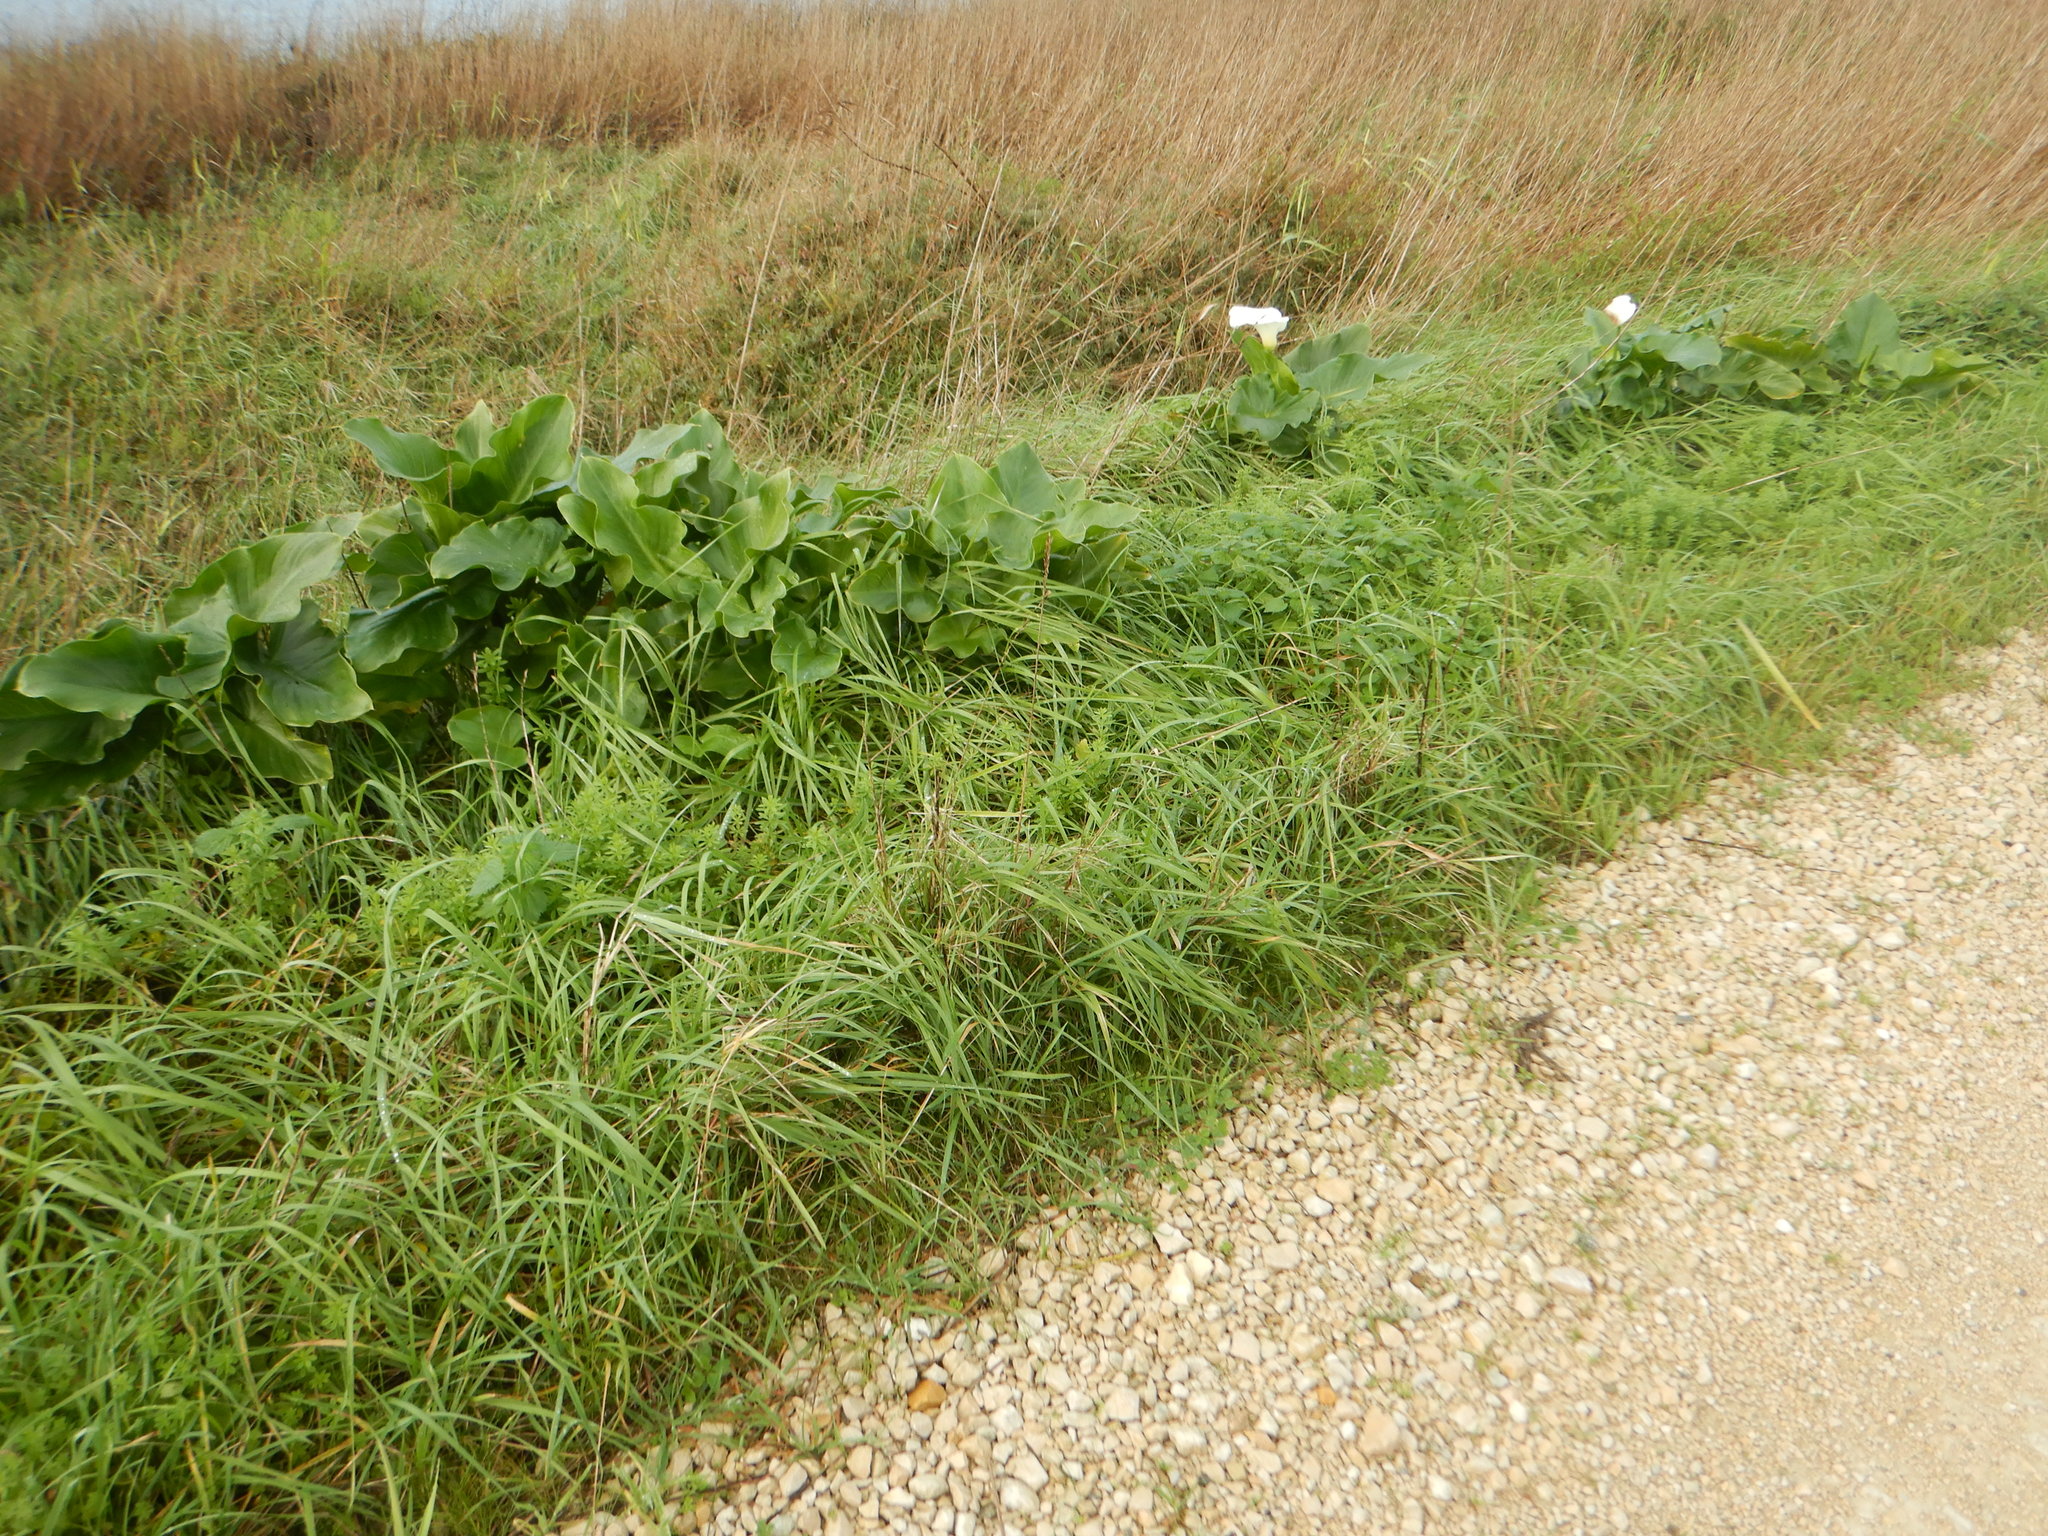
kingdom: Plantae
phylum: Tracheophyta
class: Liliopsida
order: Alismatales
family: Araceae
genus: Zantedeschia
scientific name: Zantedeschia aethiopica
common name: Altar-lily
